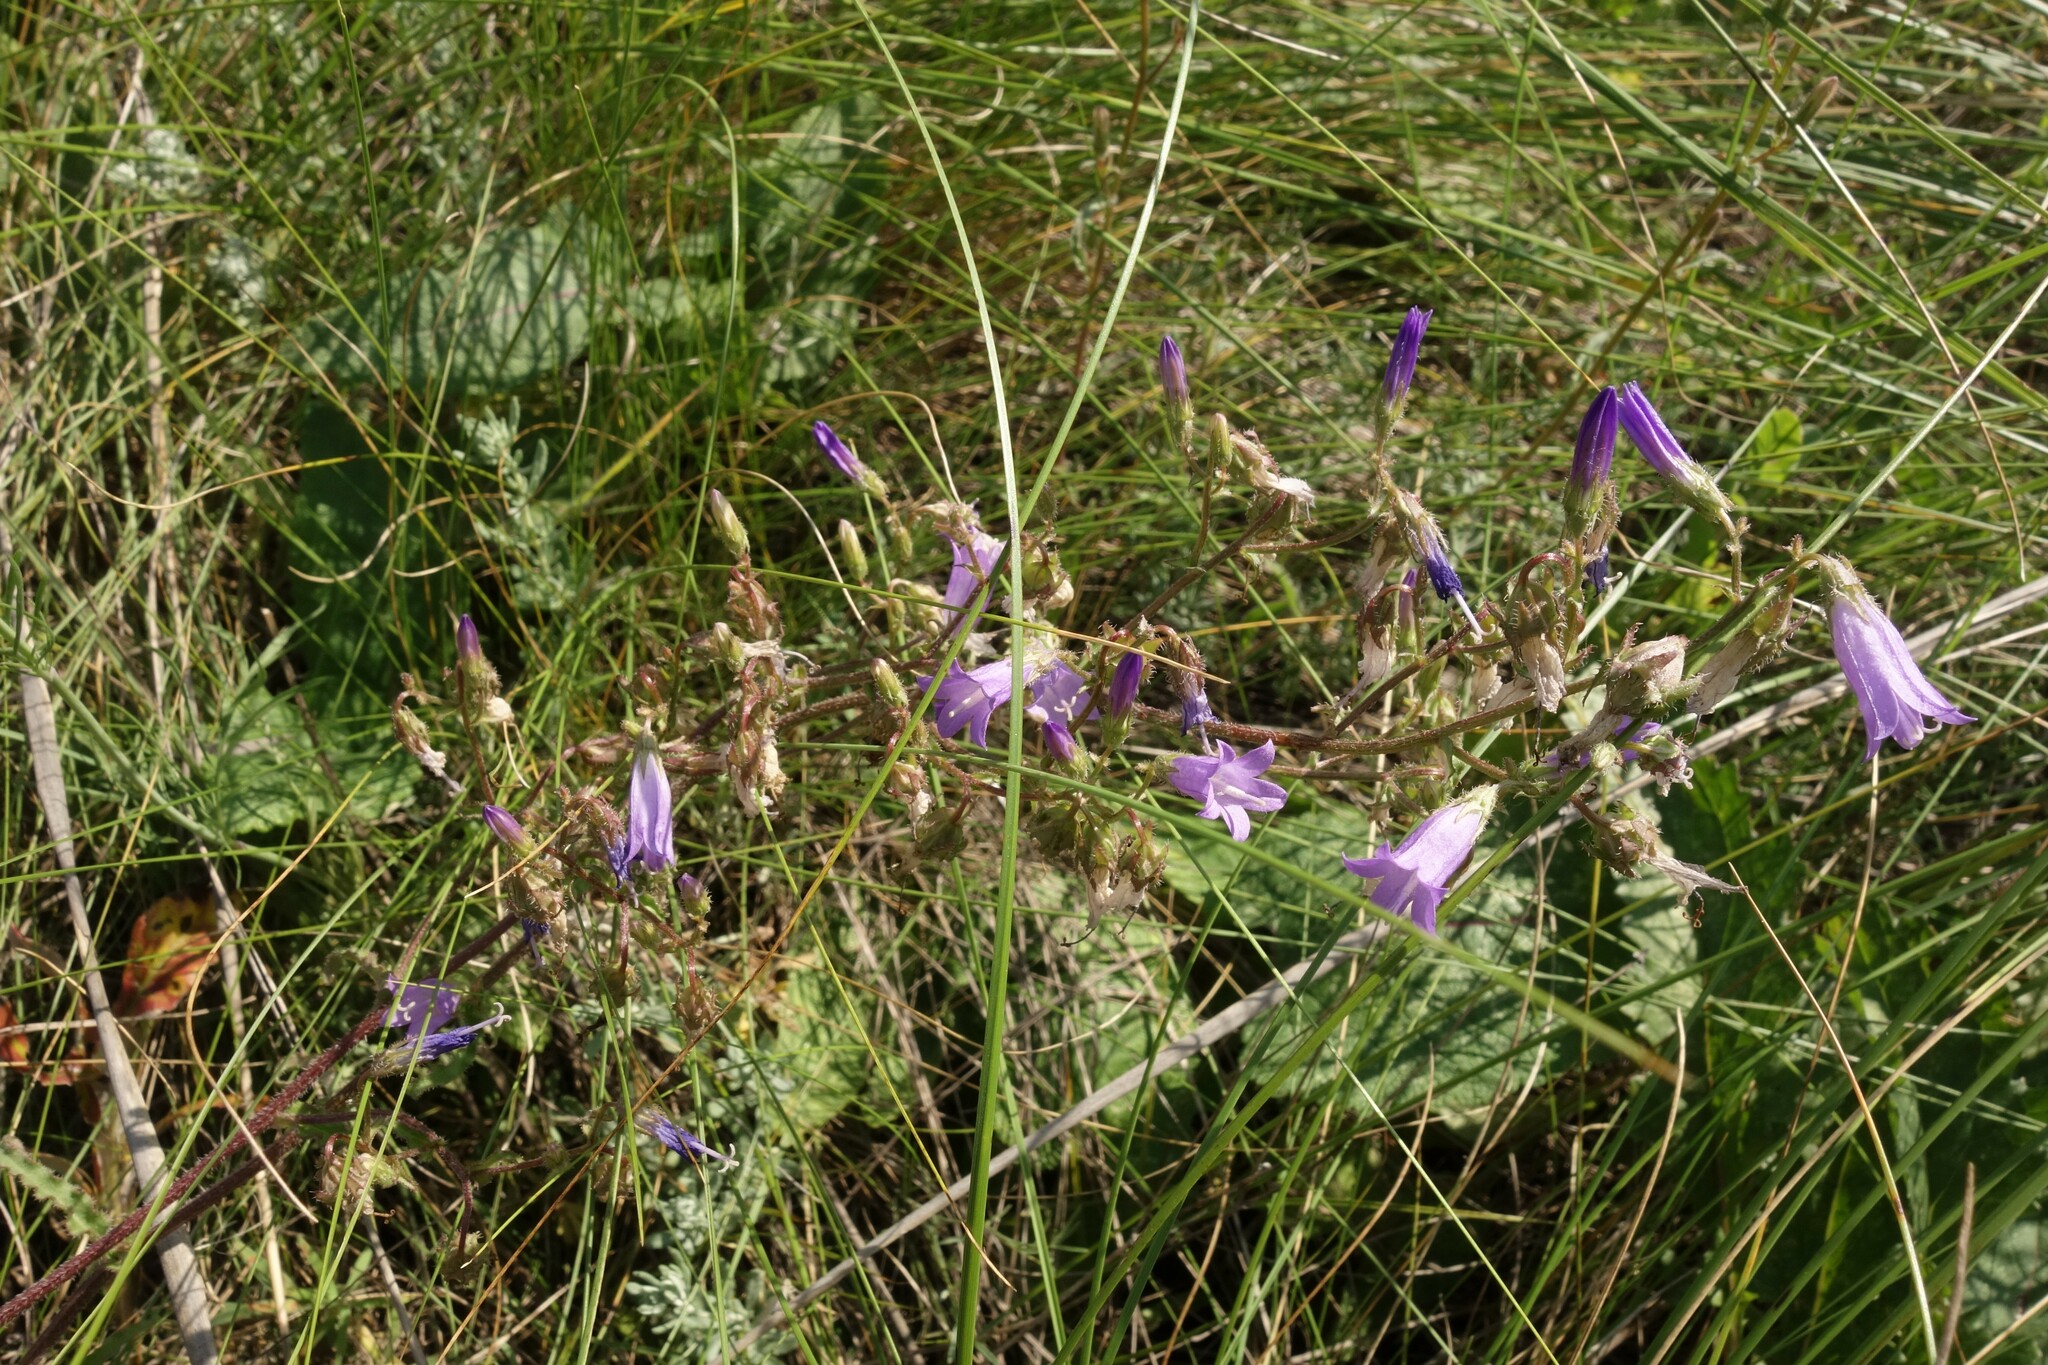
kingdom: Plantae
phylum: Tracheophyta
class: Magnoliopsida
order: Asterales
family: Campanulaceae
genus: Campanula
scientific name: Campanula sibirica
